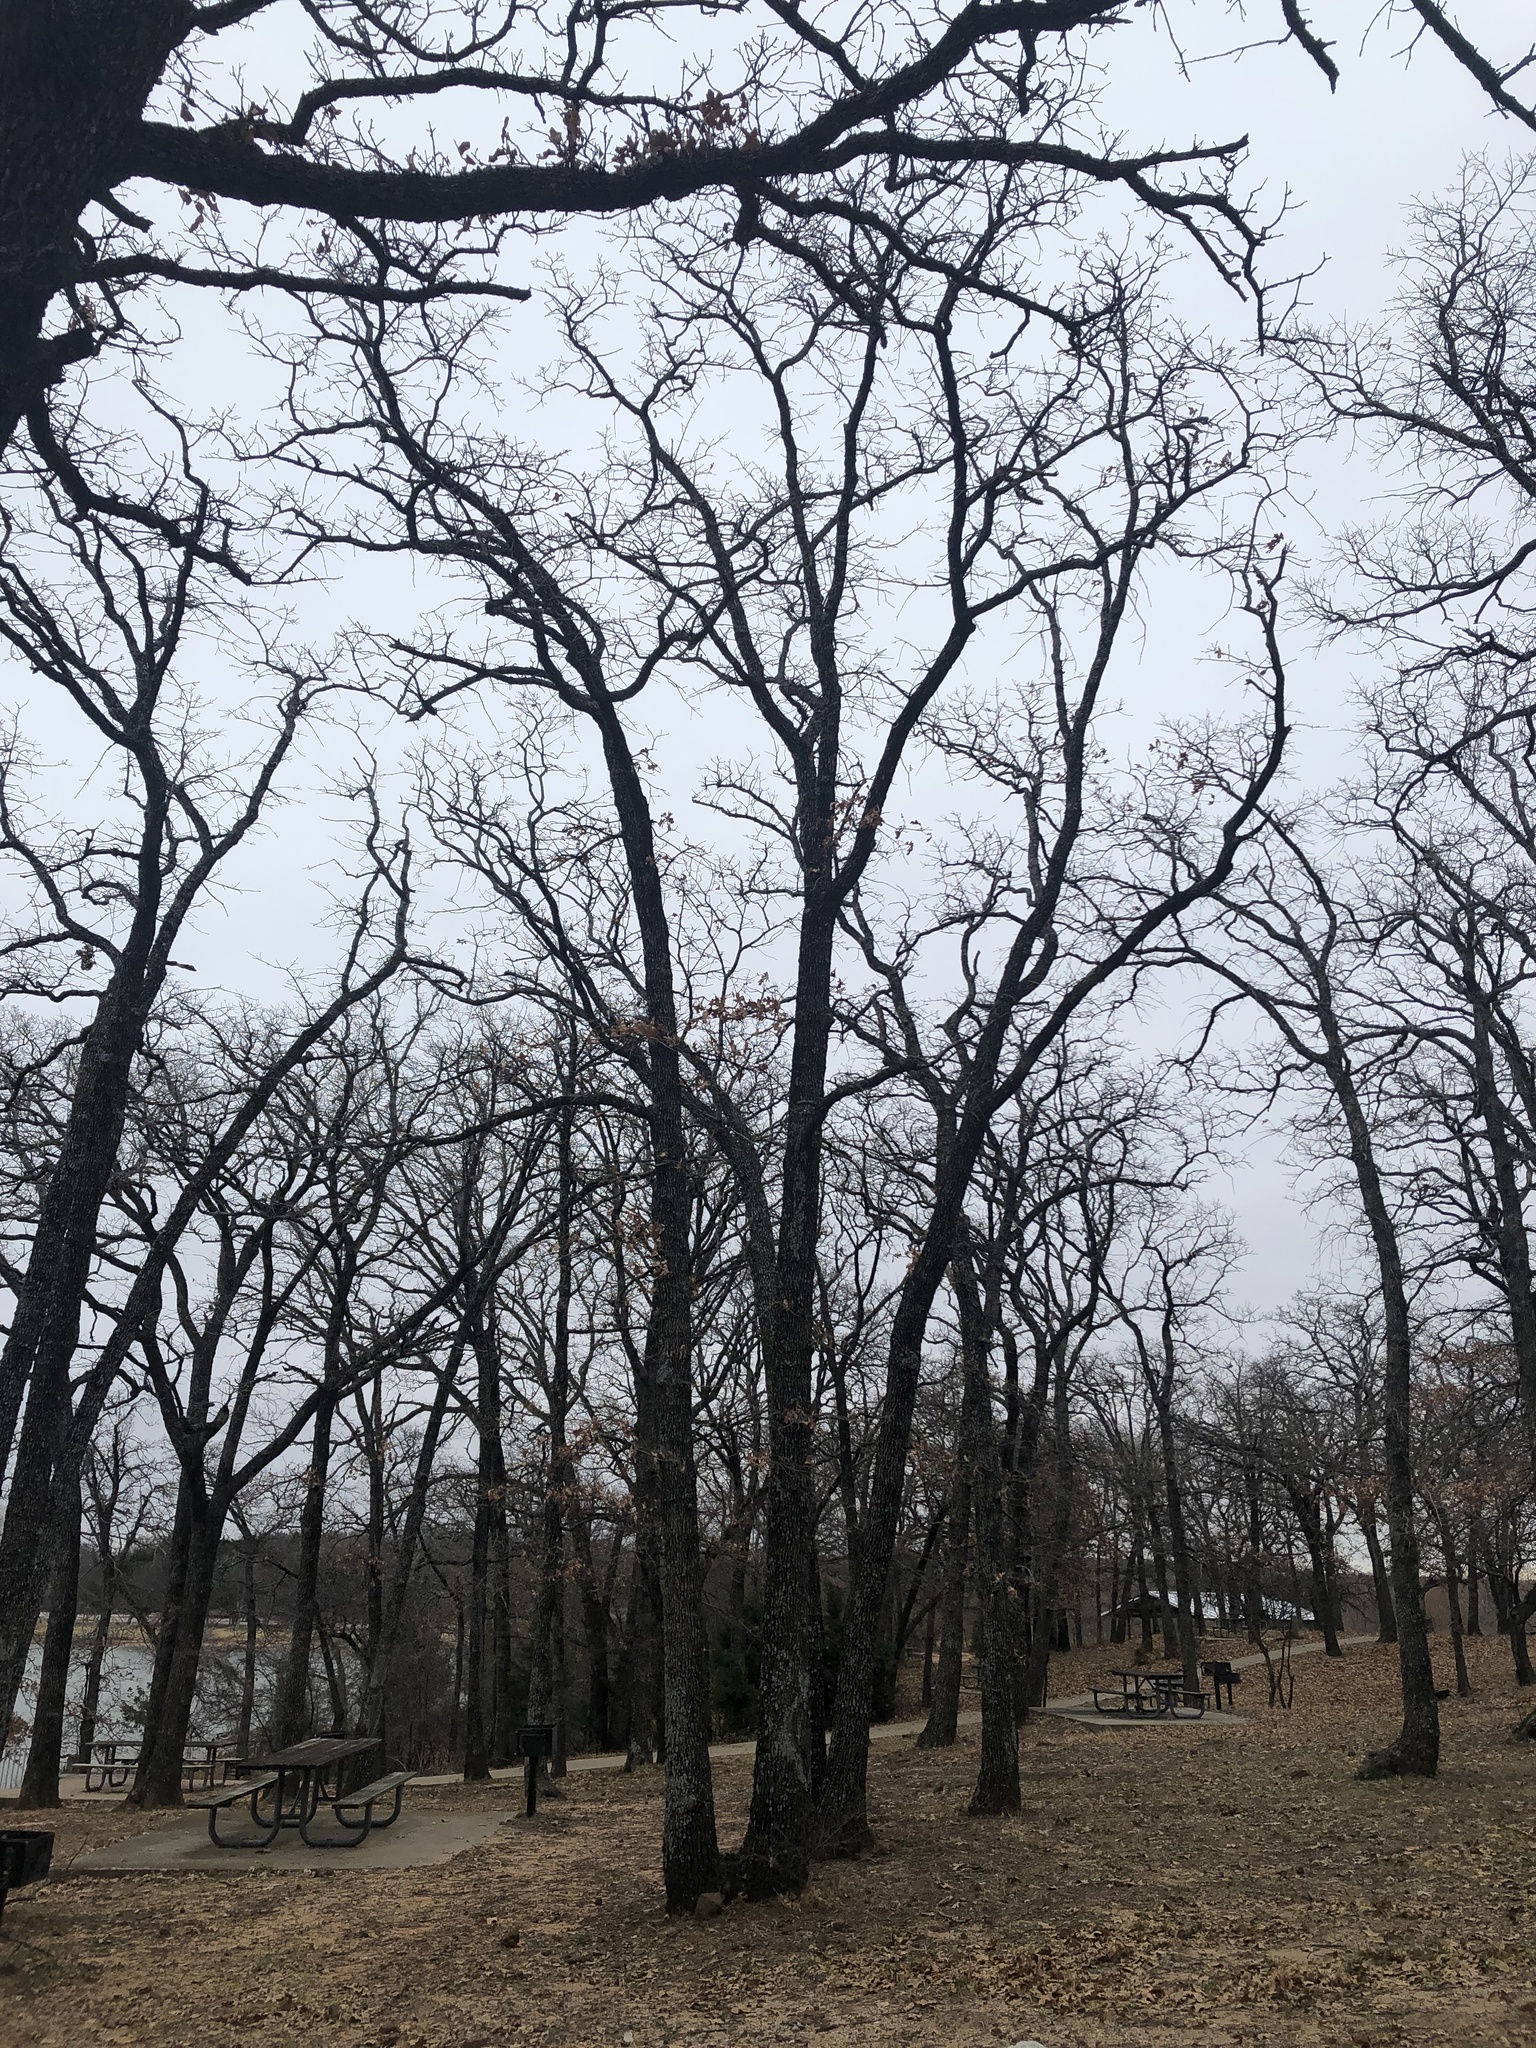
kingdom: Plantae
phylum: Tracheophyta
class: Magnoliopsida
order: Fagales
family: Fagaceae
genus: Quercus
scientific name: Quercus stellata
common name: Post oak
